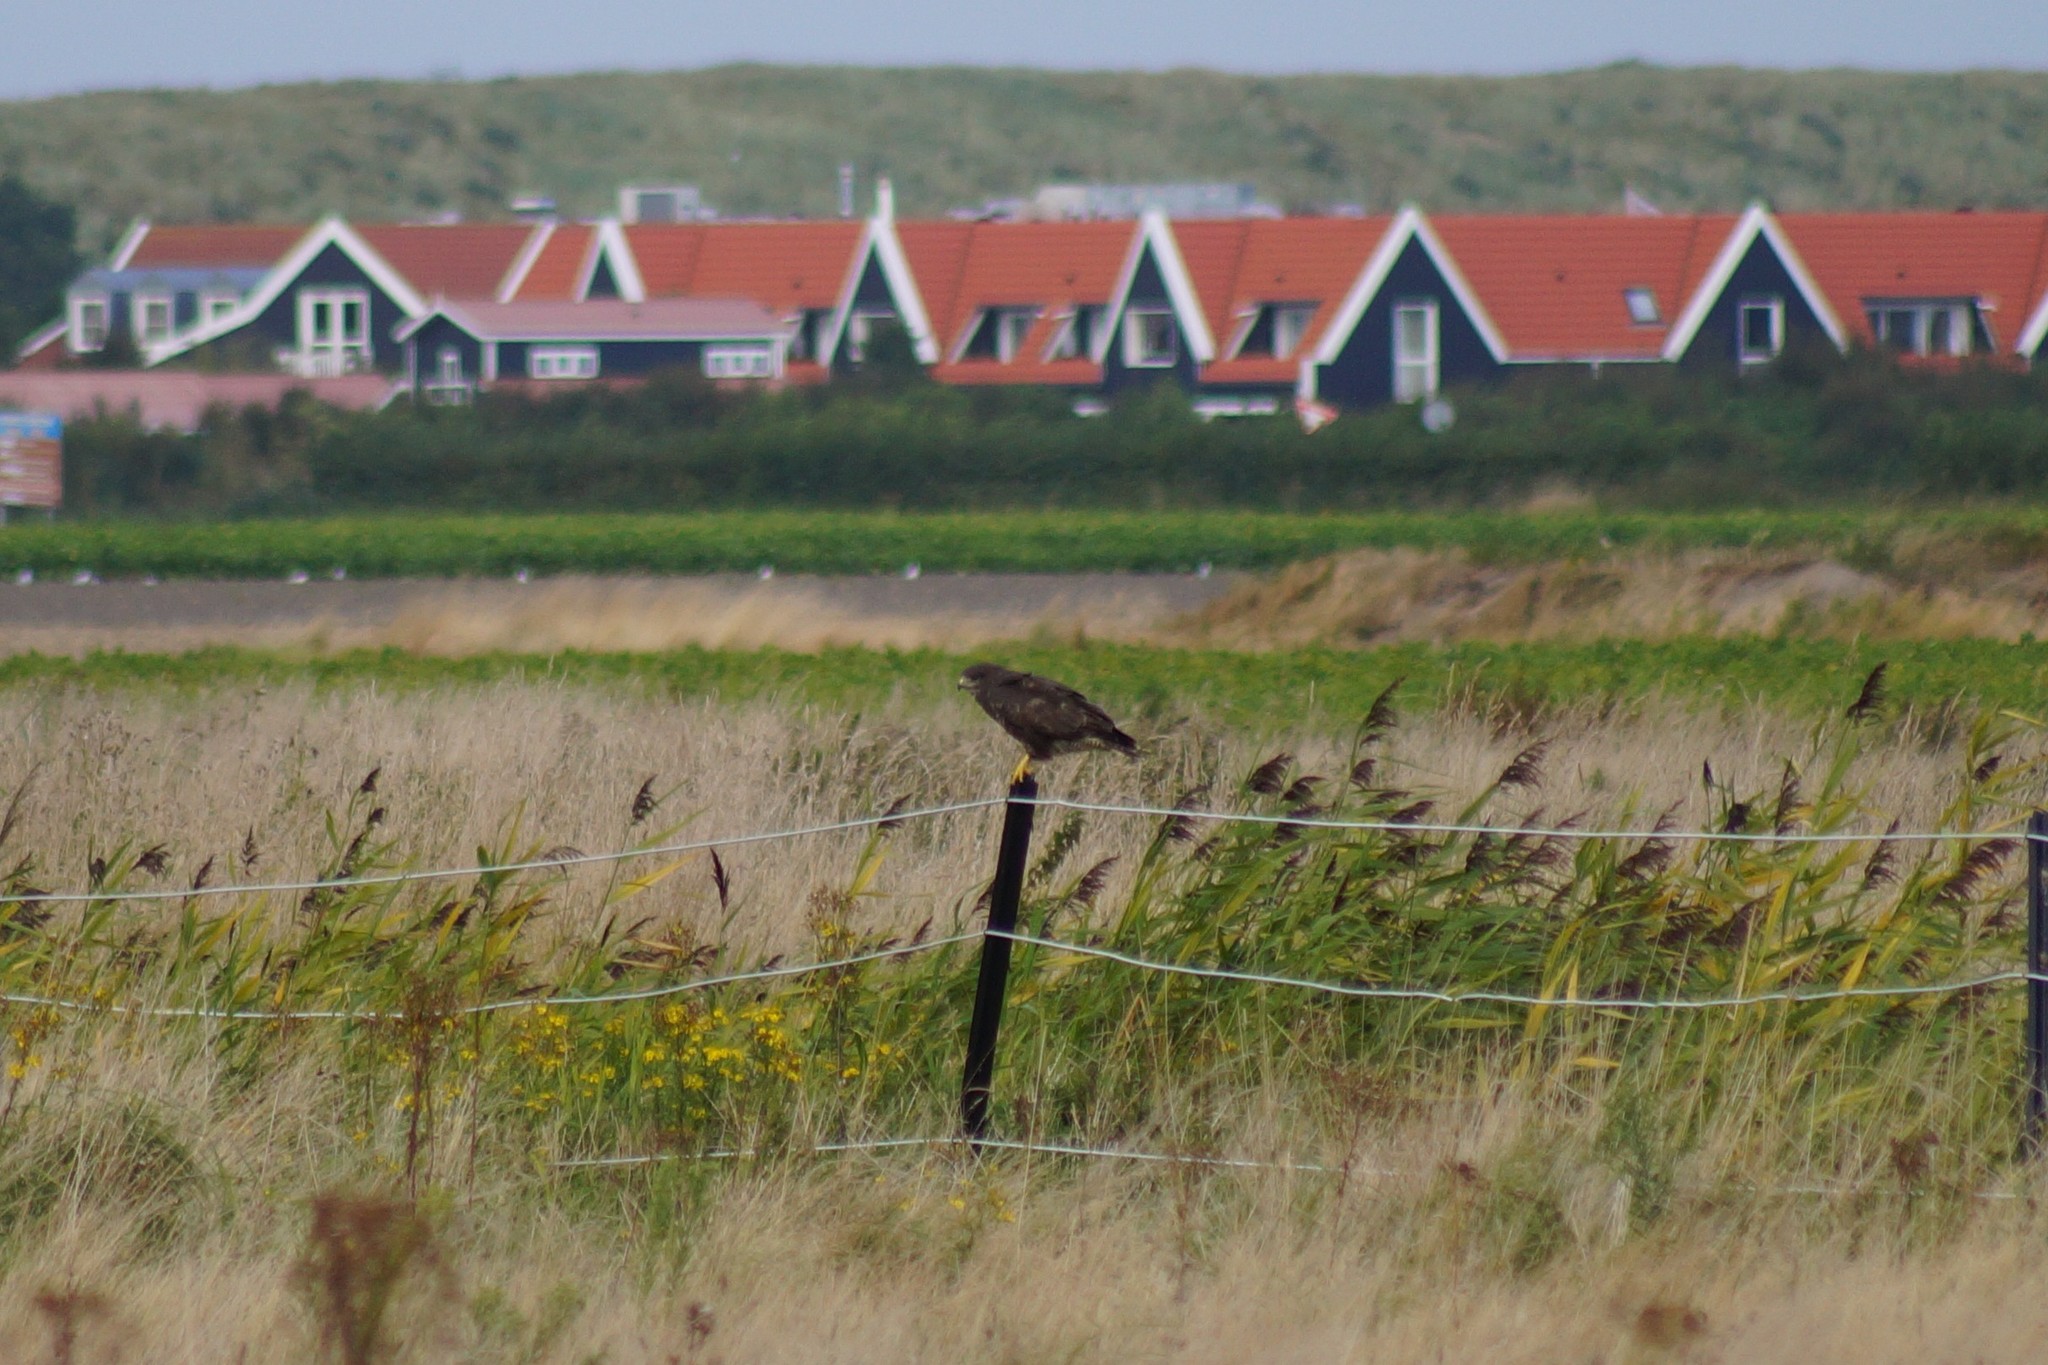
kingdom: Animalia
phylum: Chordata
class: Aves
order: Accipitriformes
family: Accipitridae
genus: Buteo
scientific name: Buteo buteo
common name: Common buzzard
